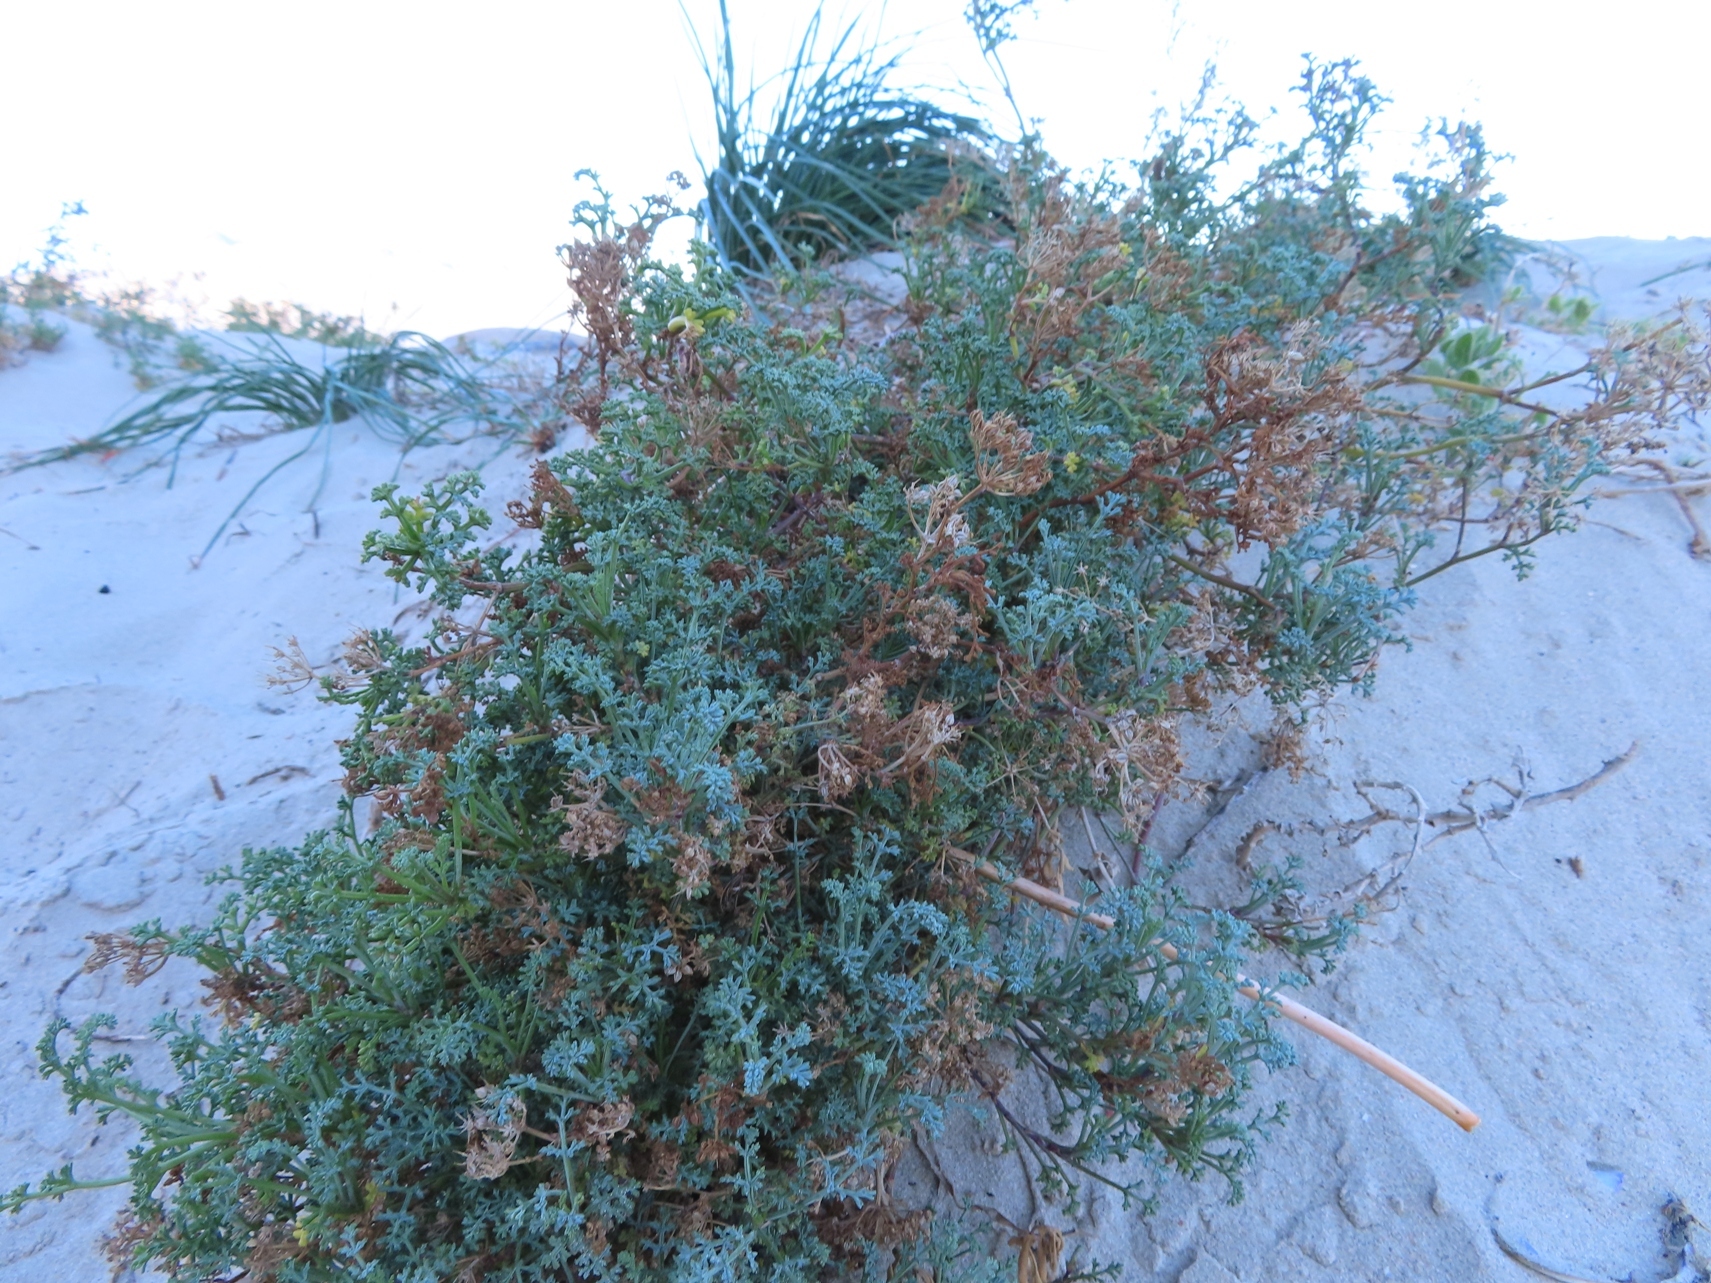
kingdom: Plantae
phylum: Tracheophyta
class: Magnoliopsida
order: Apiales
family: Apiaceae
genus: Dasispermum
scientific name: Dasispermum suffruticosum
